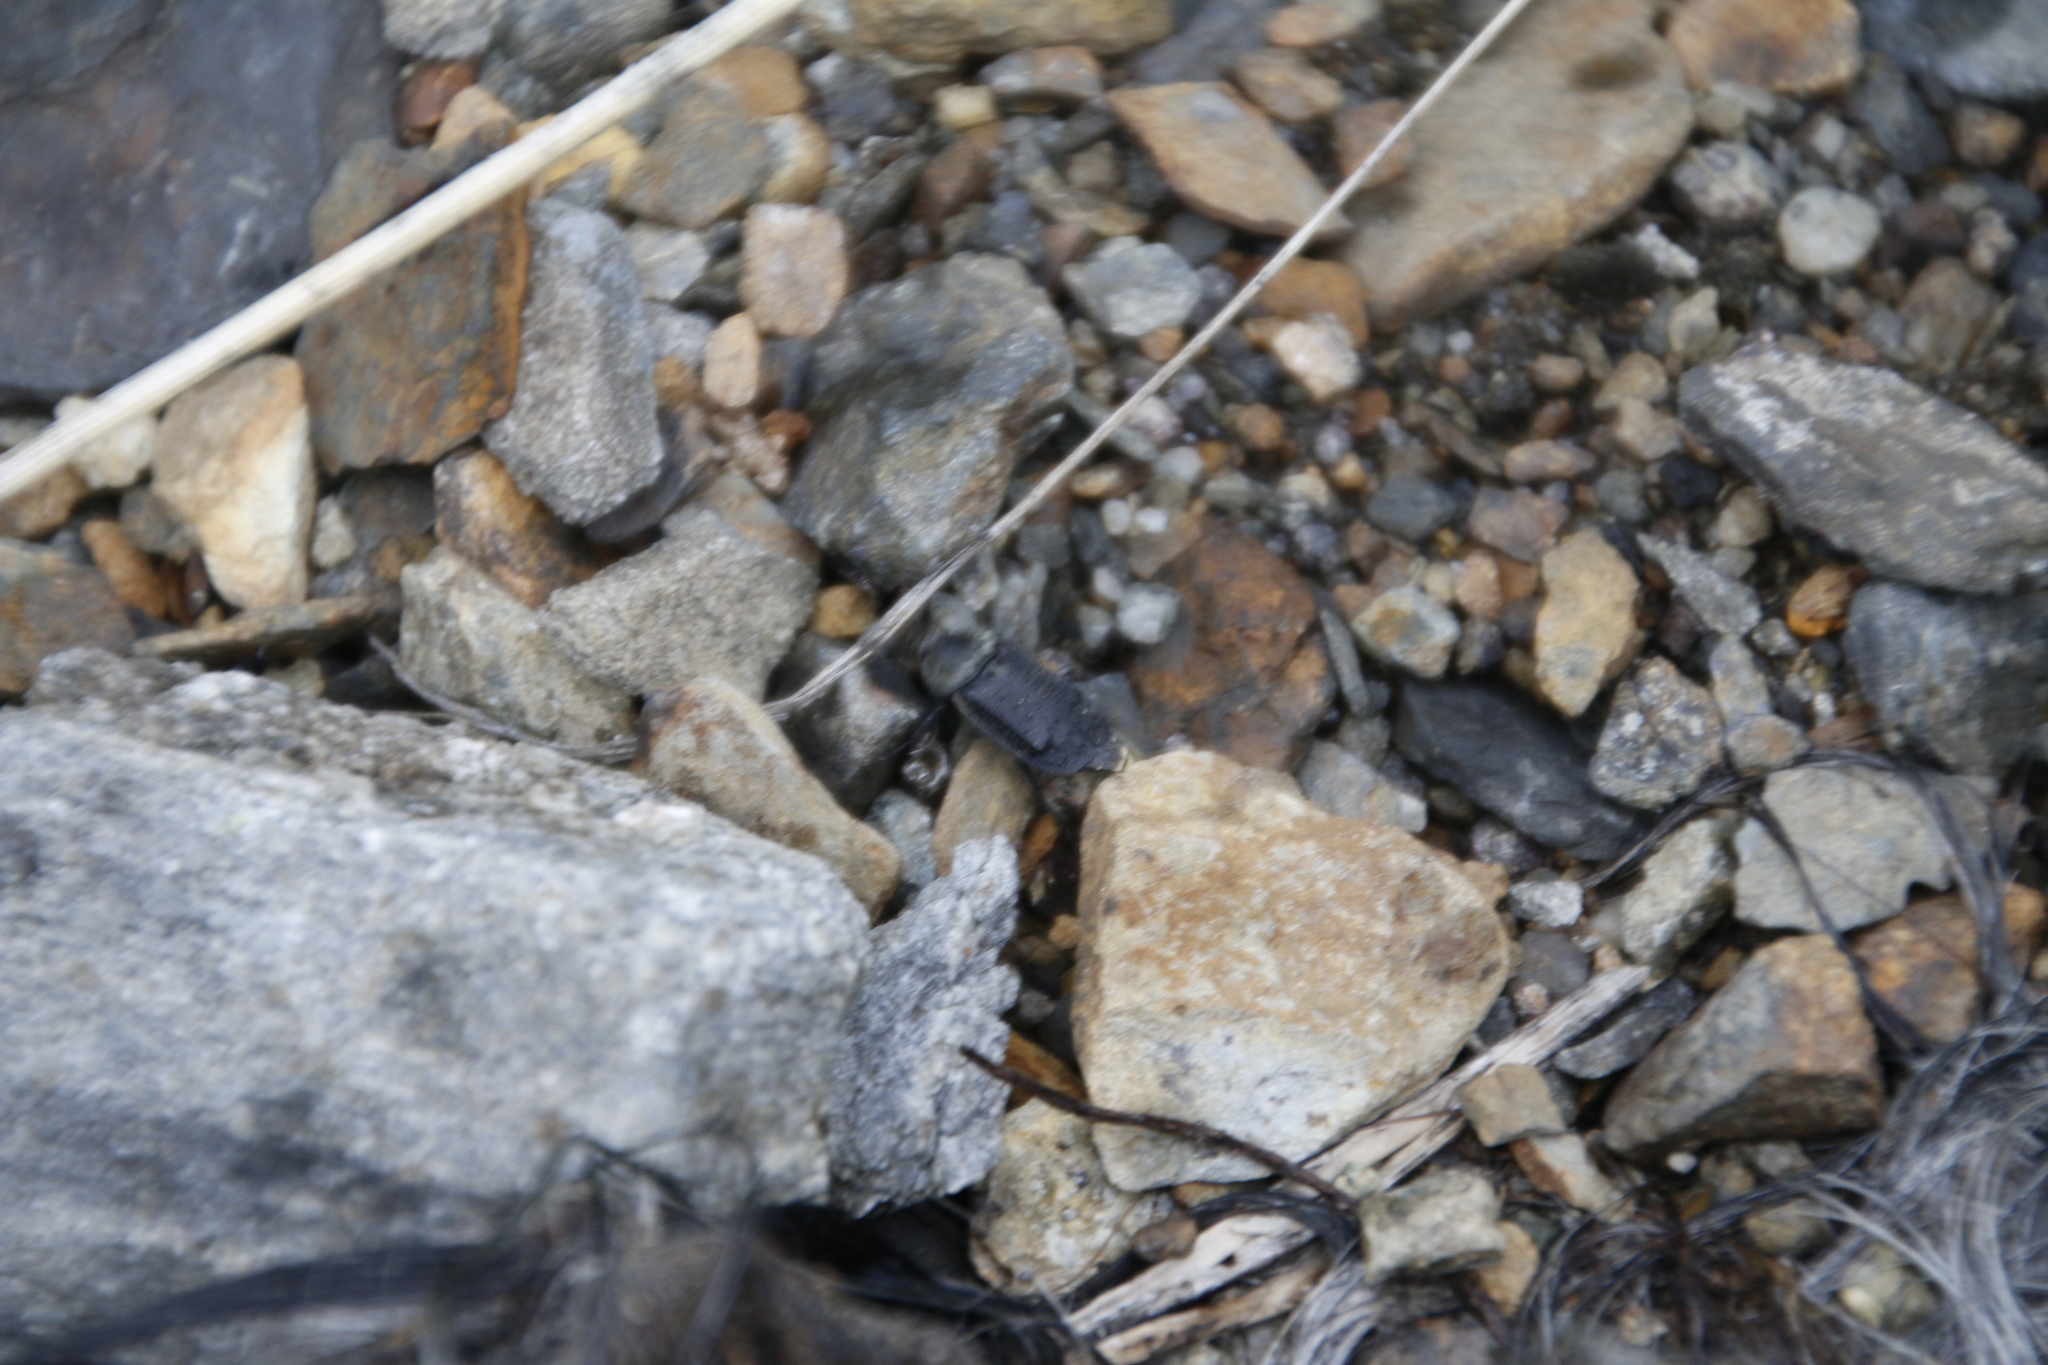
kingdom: Animalia
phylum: Arthropoda
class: Insecta
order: Coleoptera
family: Staphylinidae
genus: Thanatophilus
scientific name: Thanatophilus lapponicus
